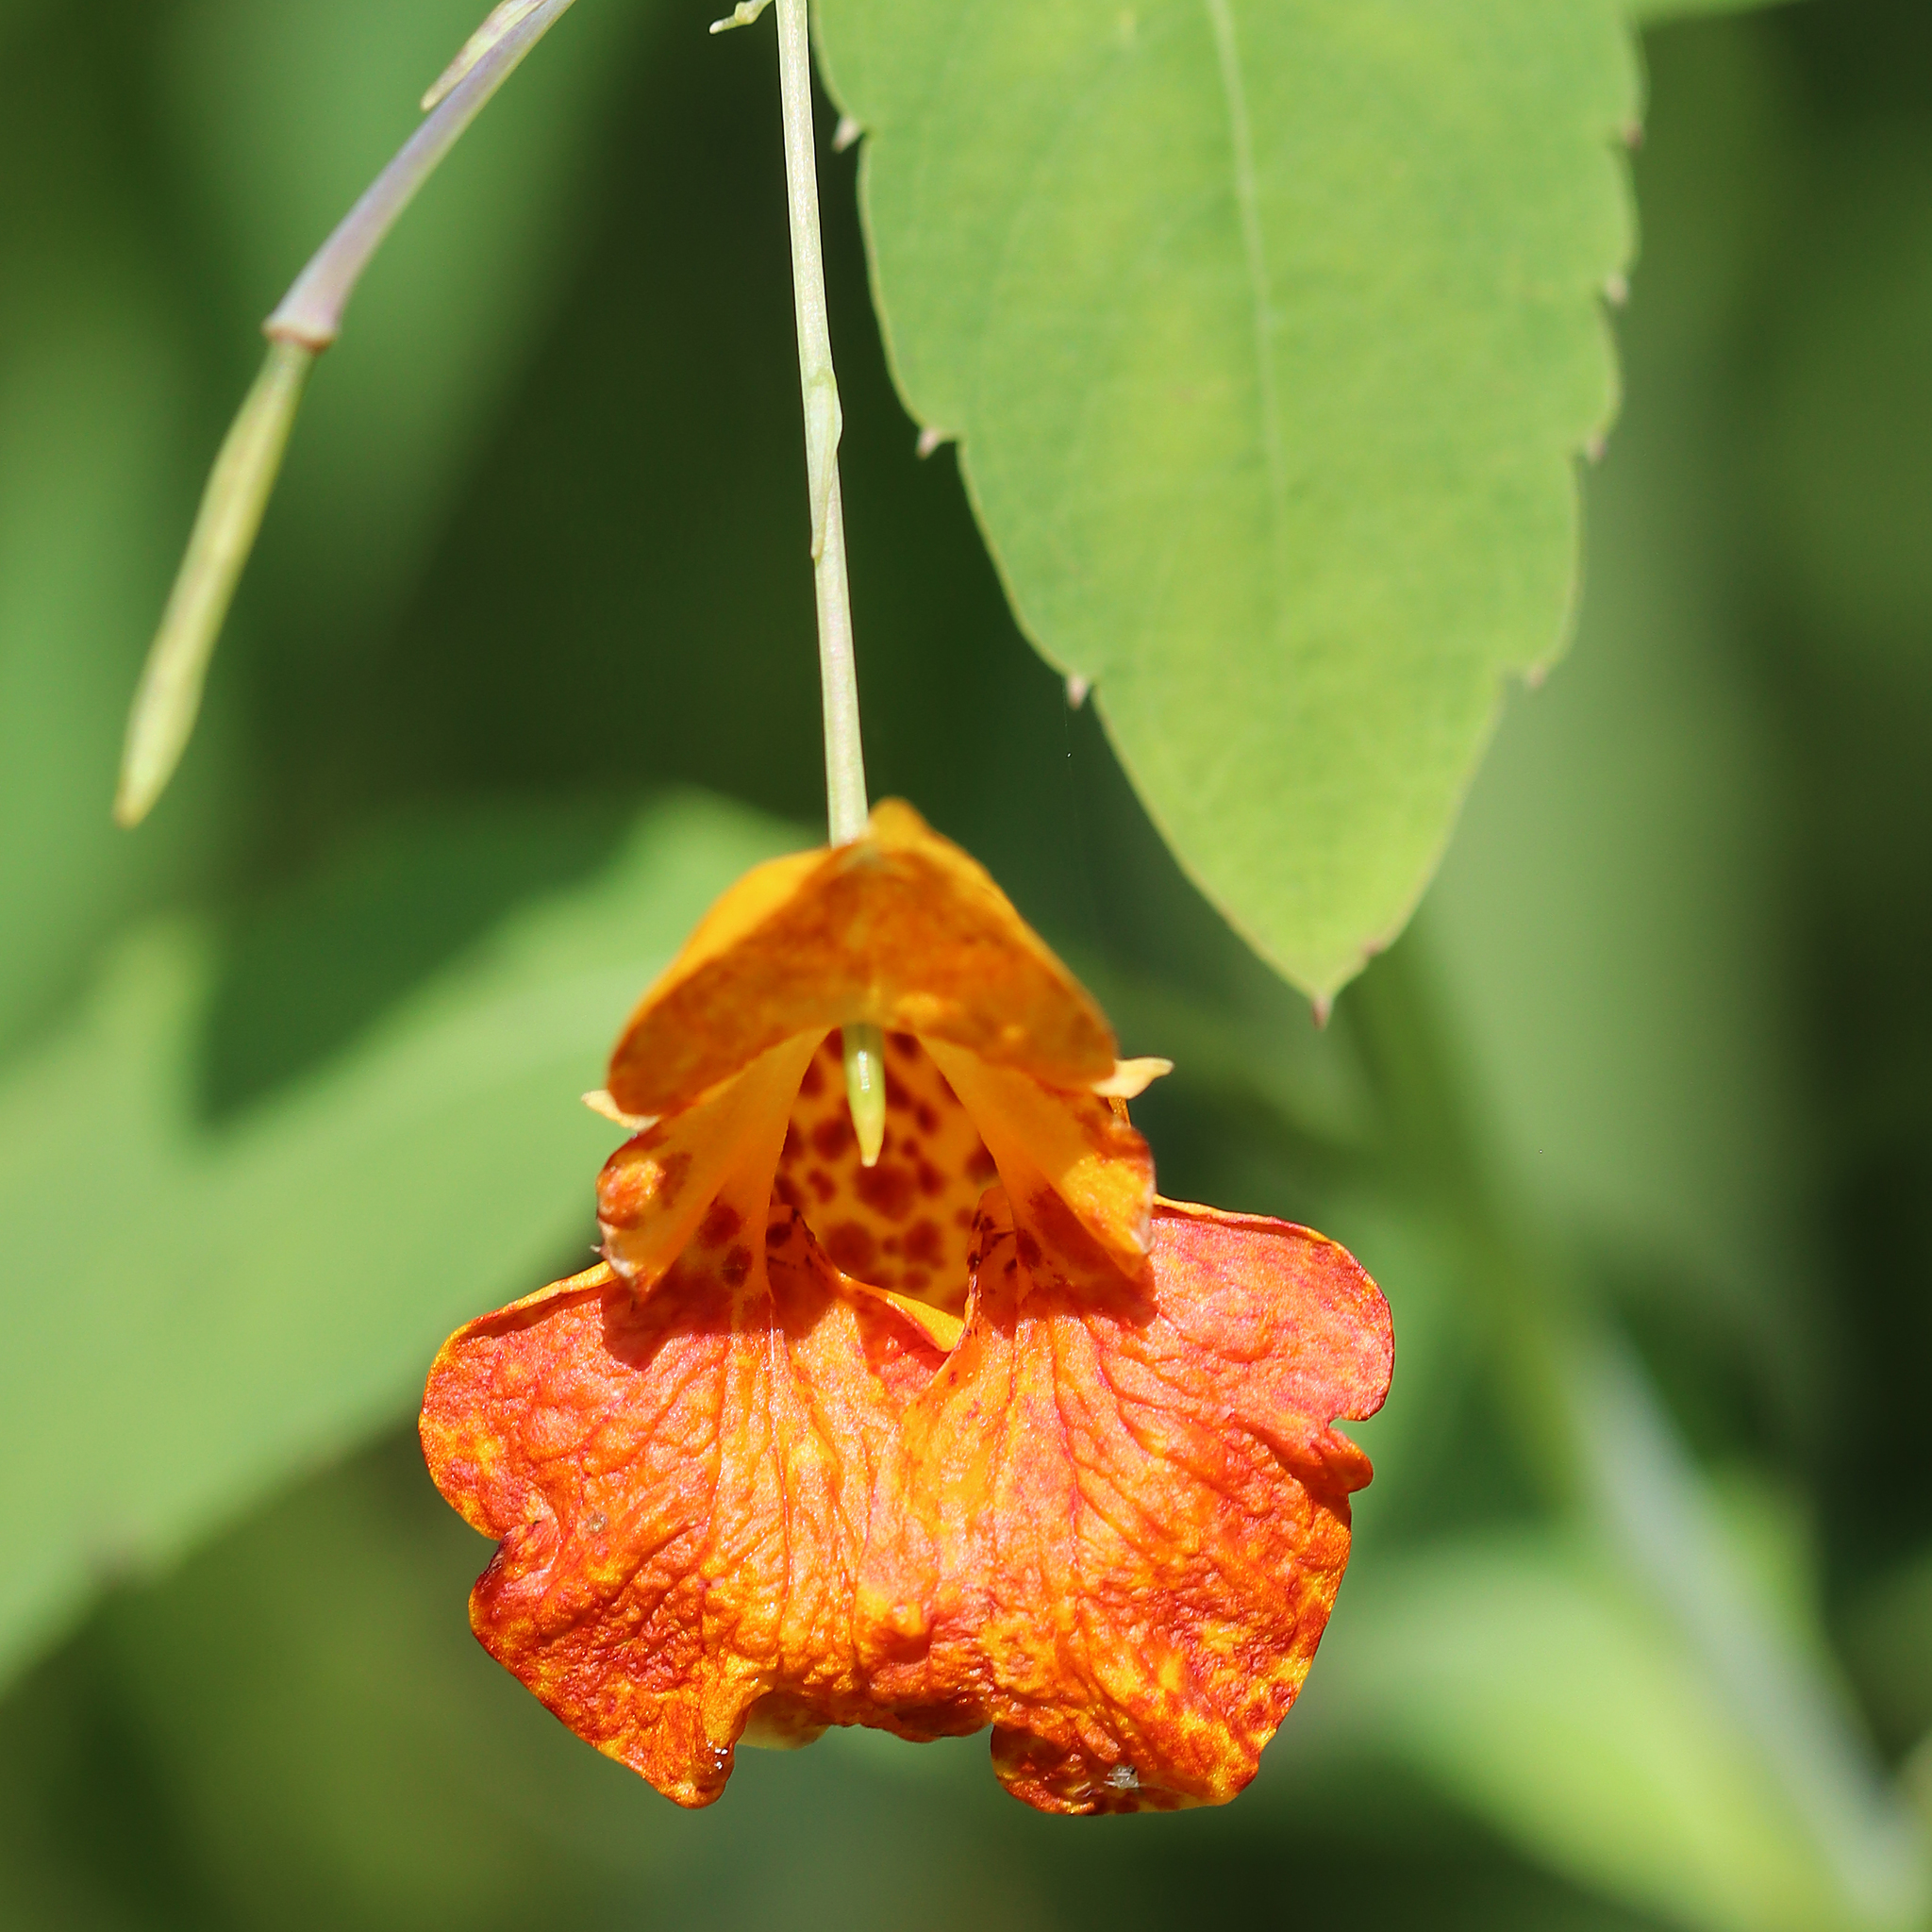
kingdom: Plantae
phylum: Tracheophyta
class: Magnoliopsida
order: Ericales
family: Balsaminaceae
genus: Impatiens
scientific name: Impatiens capensis
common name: Orange balsam
